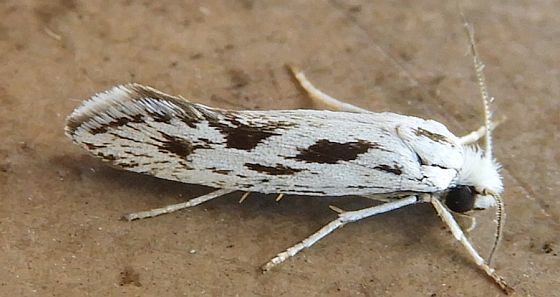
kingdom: Animalia
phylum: Arthropoda
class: Insecta
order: Lepidoptera
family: Prodoxidae
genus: Prodoxus
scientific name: Prodoxus
